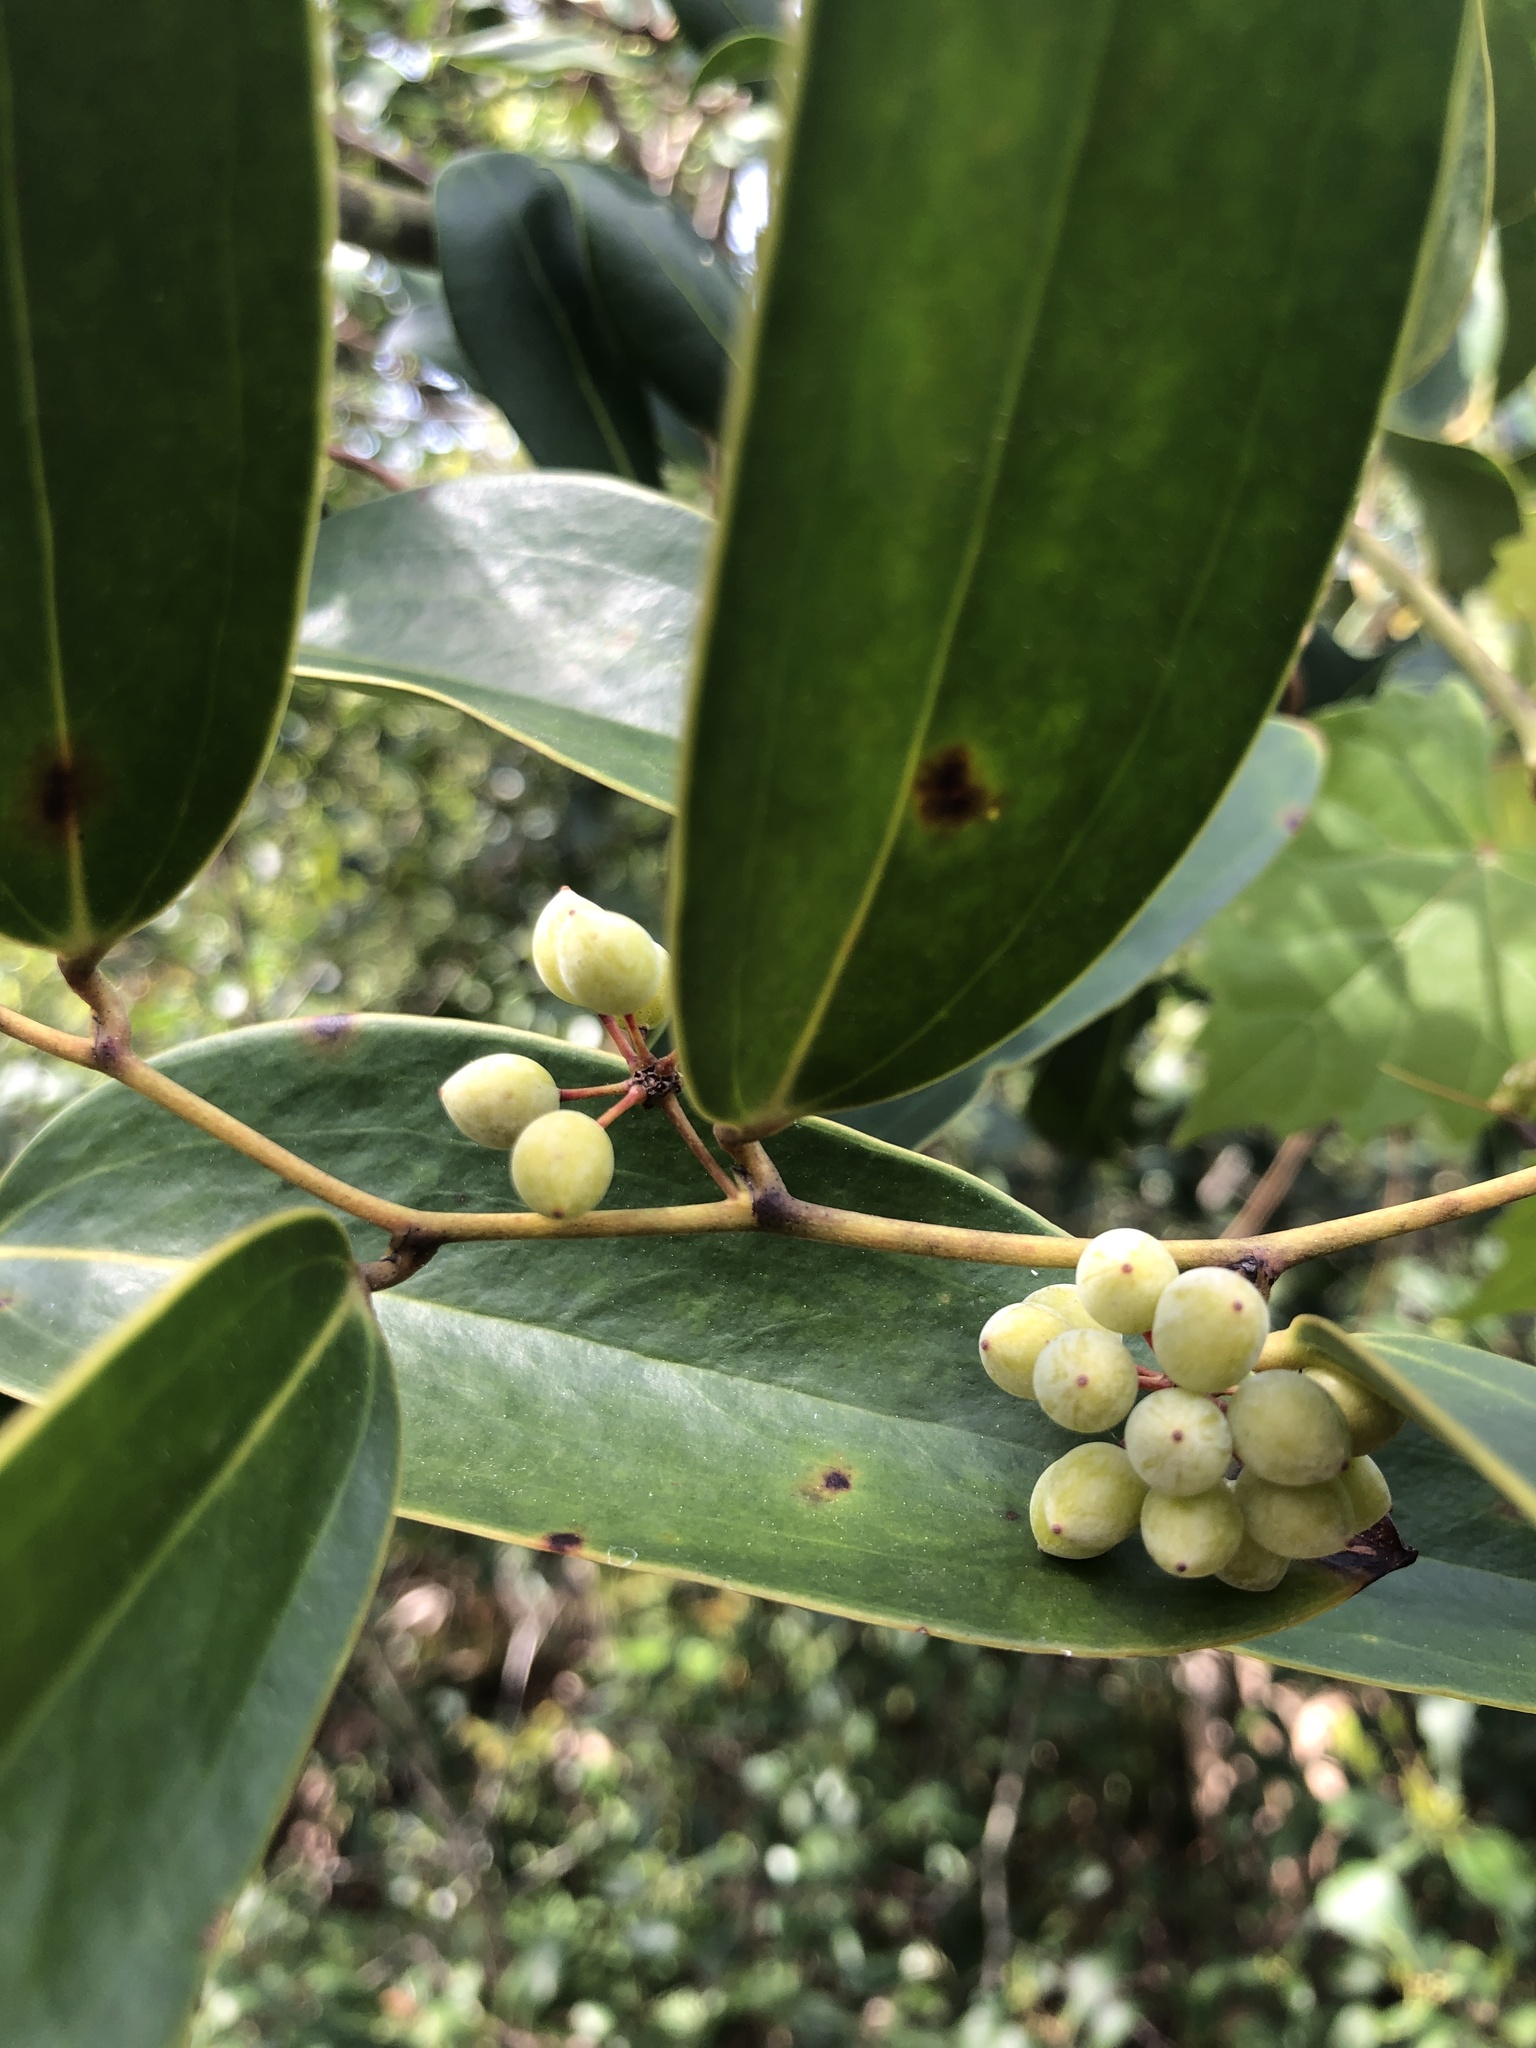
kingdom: Plantae
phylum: Tracheophyta
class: Liliopsida
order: Liliales
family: Smilacaceae
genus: Smilax
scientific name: Smilax laurifolia
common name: Bamboovine
